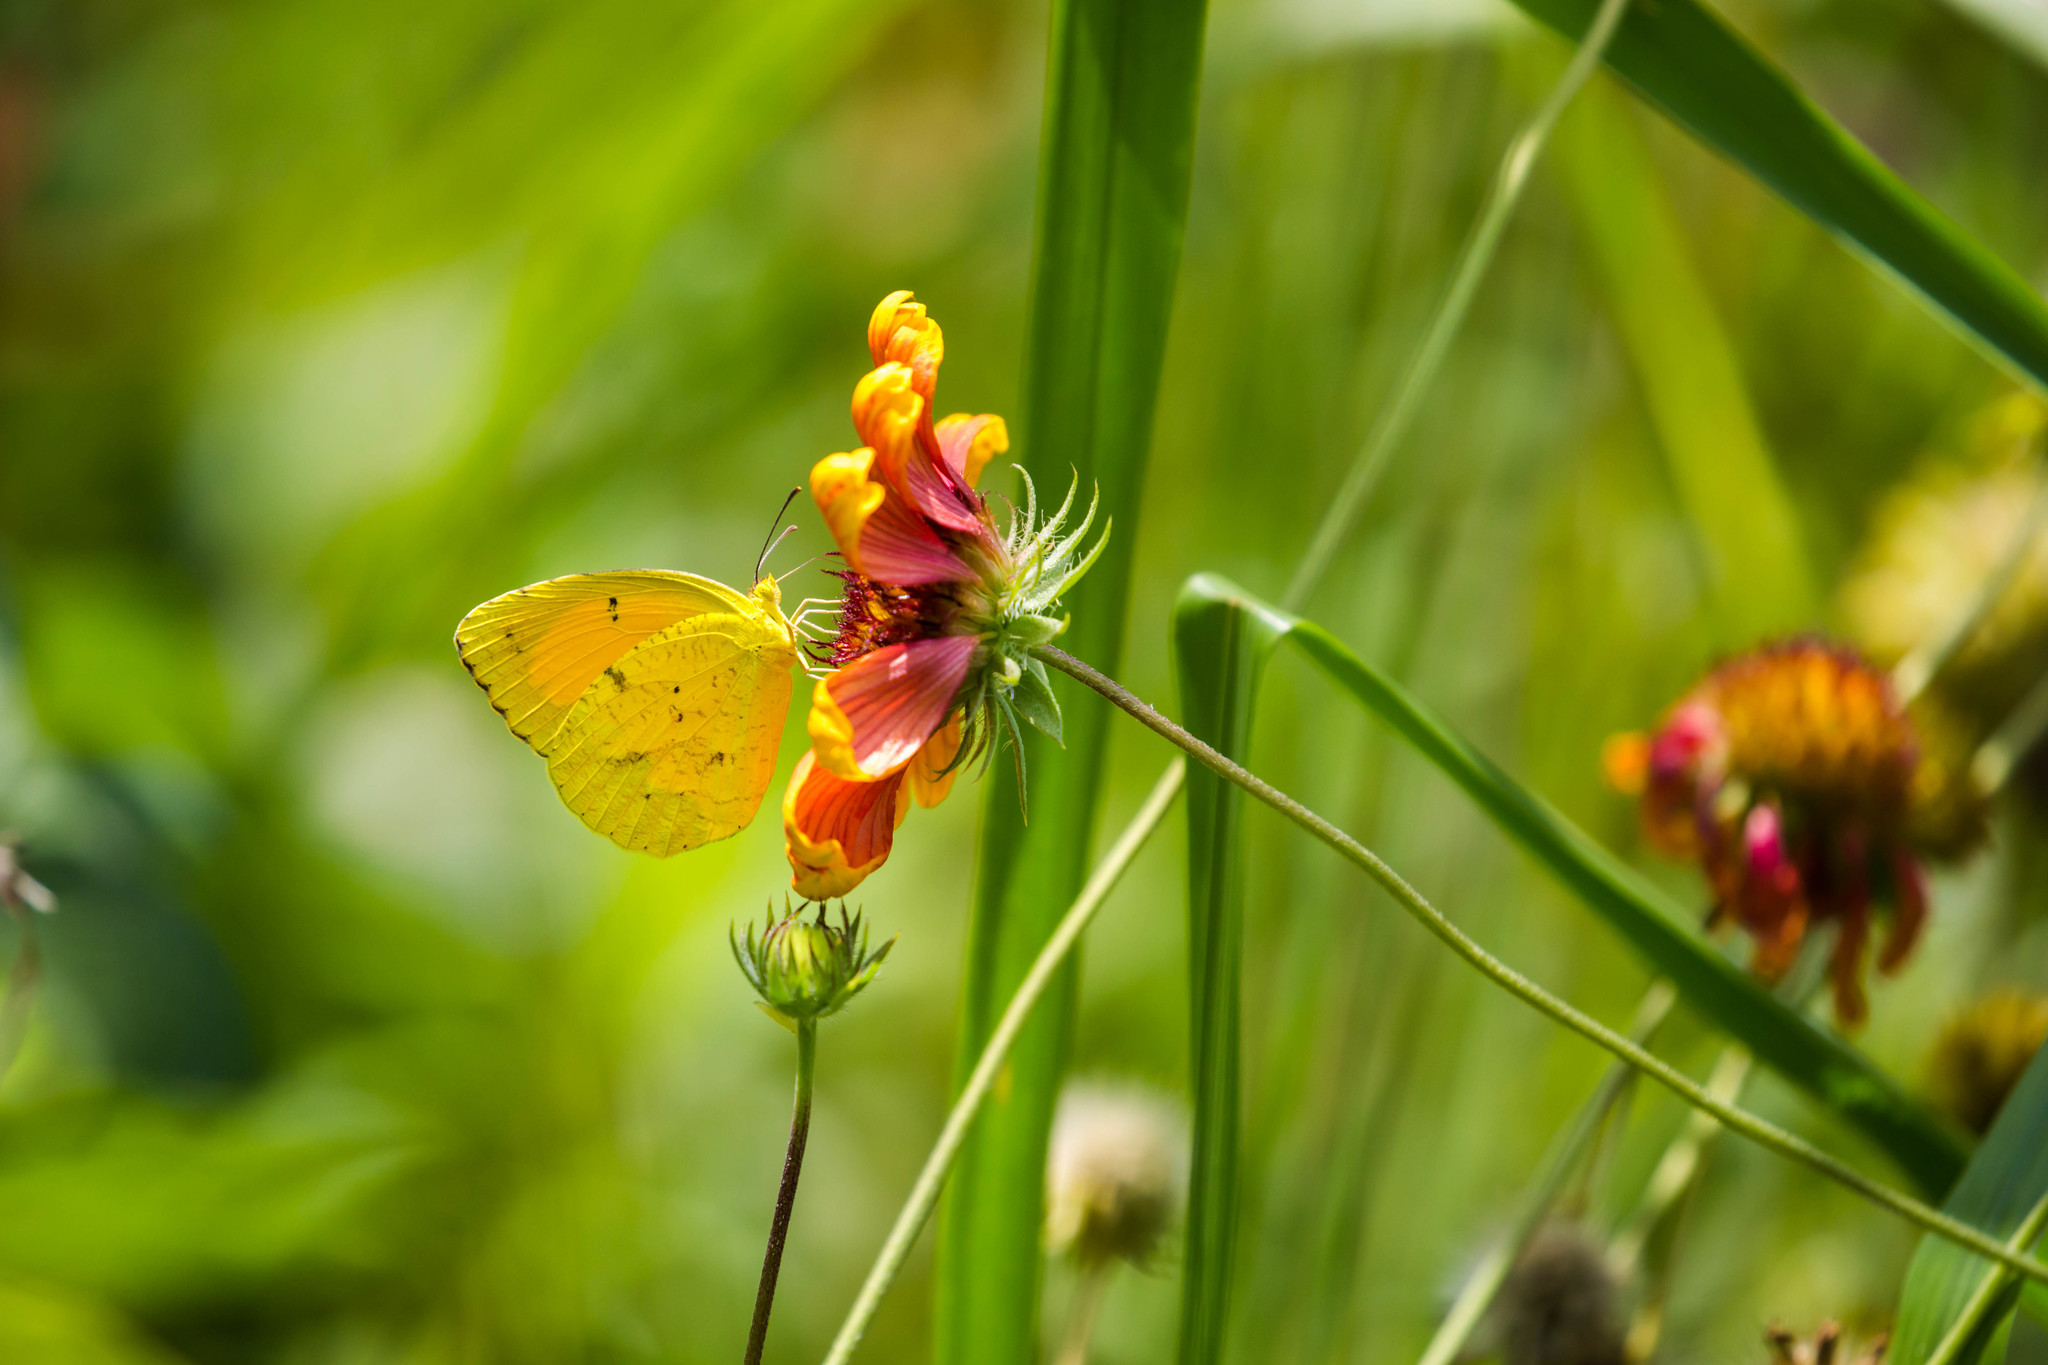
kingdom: Animalia
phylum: Arthropoda
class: Insecta
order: Lepidoptera
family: Pieridae
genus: Abaeis
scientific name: Abaeis nicippe
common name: Sleepy orange
